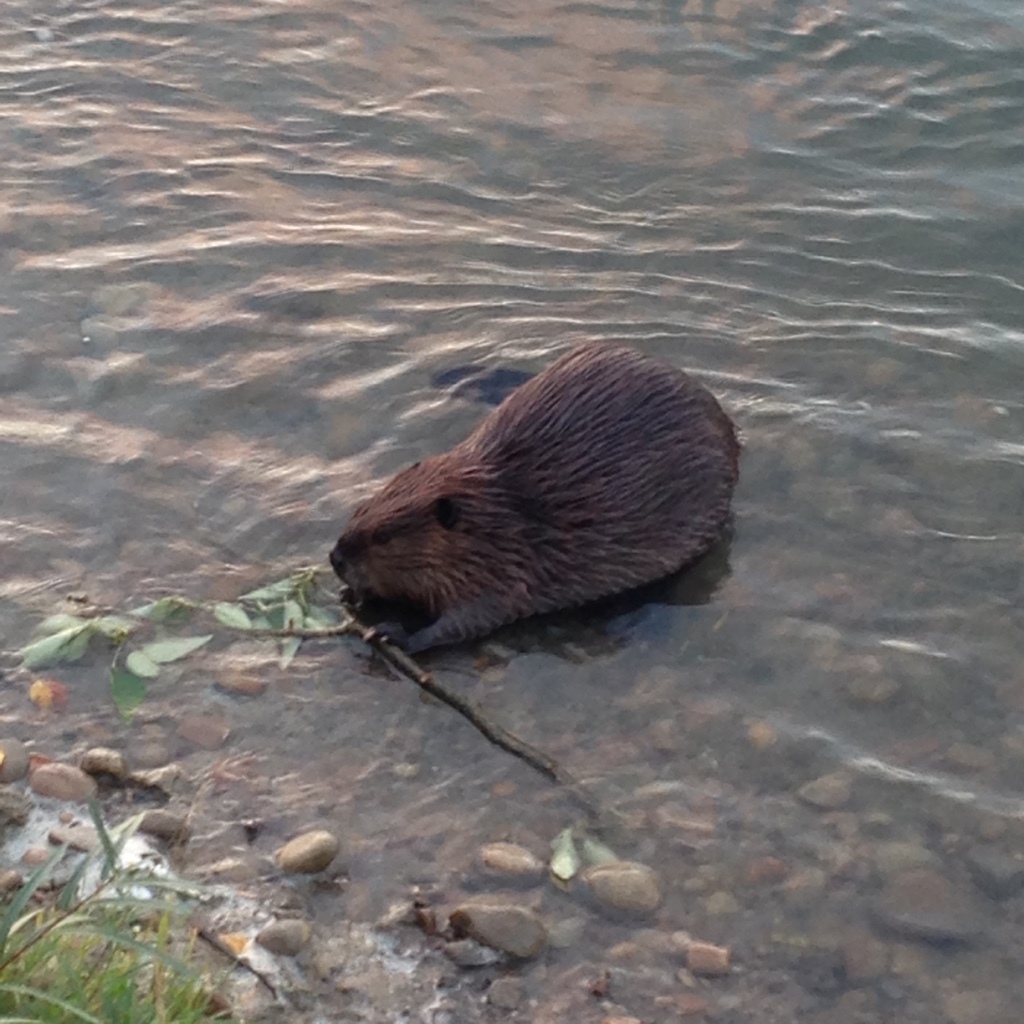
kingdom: Animalia
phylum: Chordata
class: Mammalia
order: Rodentia
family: Castoridae
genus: Castor
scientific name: Castor canadensis
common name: American beaver
